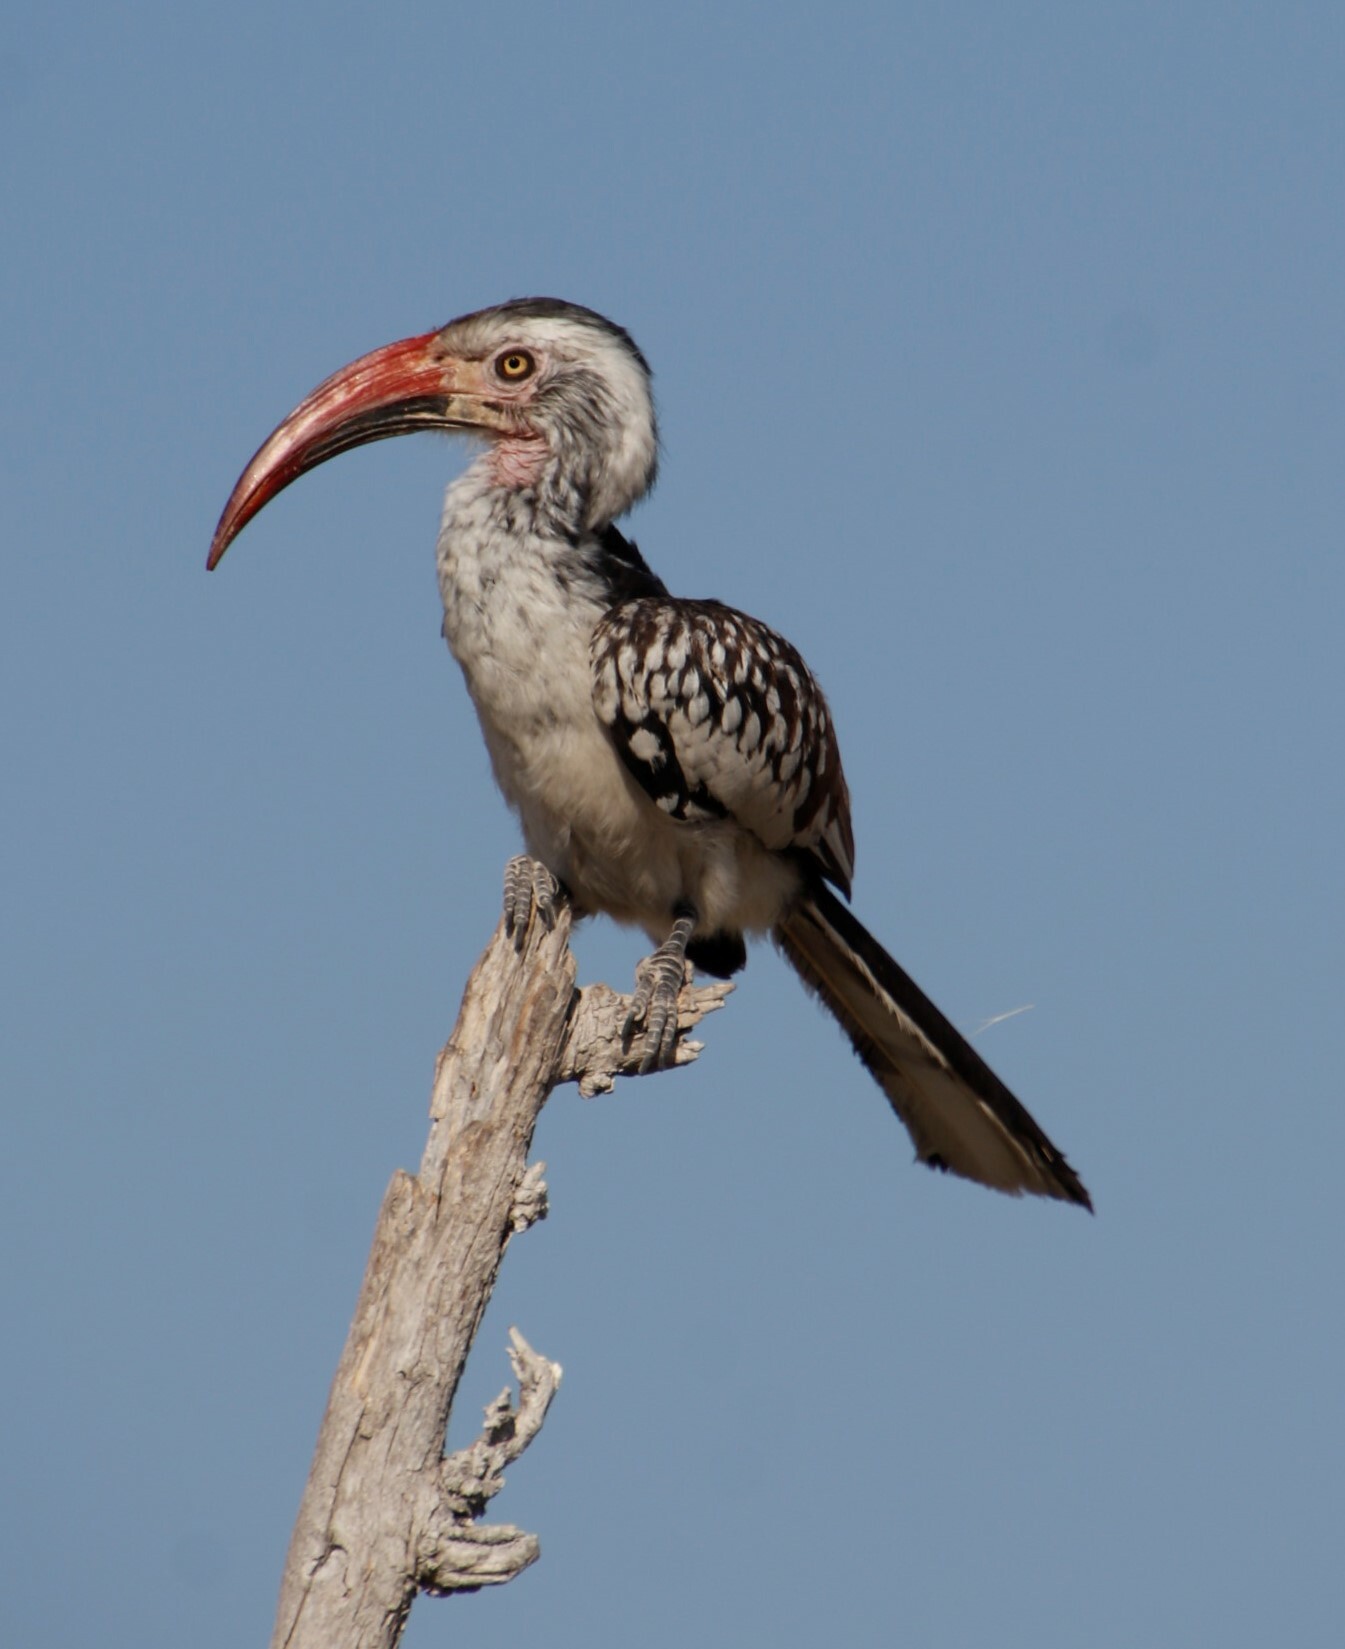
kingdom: Animalia
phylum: Chordata
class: Aves
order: Bucerotiformes
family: Bucerotidae
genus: Tockus
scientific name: Tockus rufirostris
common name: Southern red-billed hornbill
